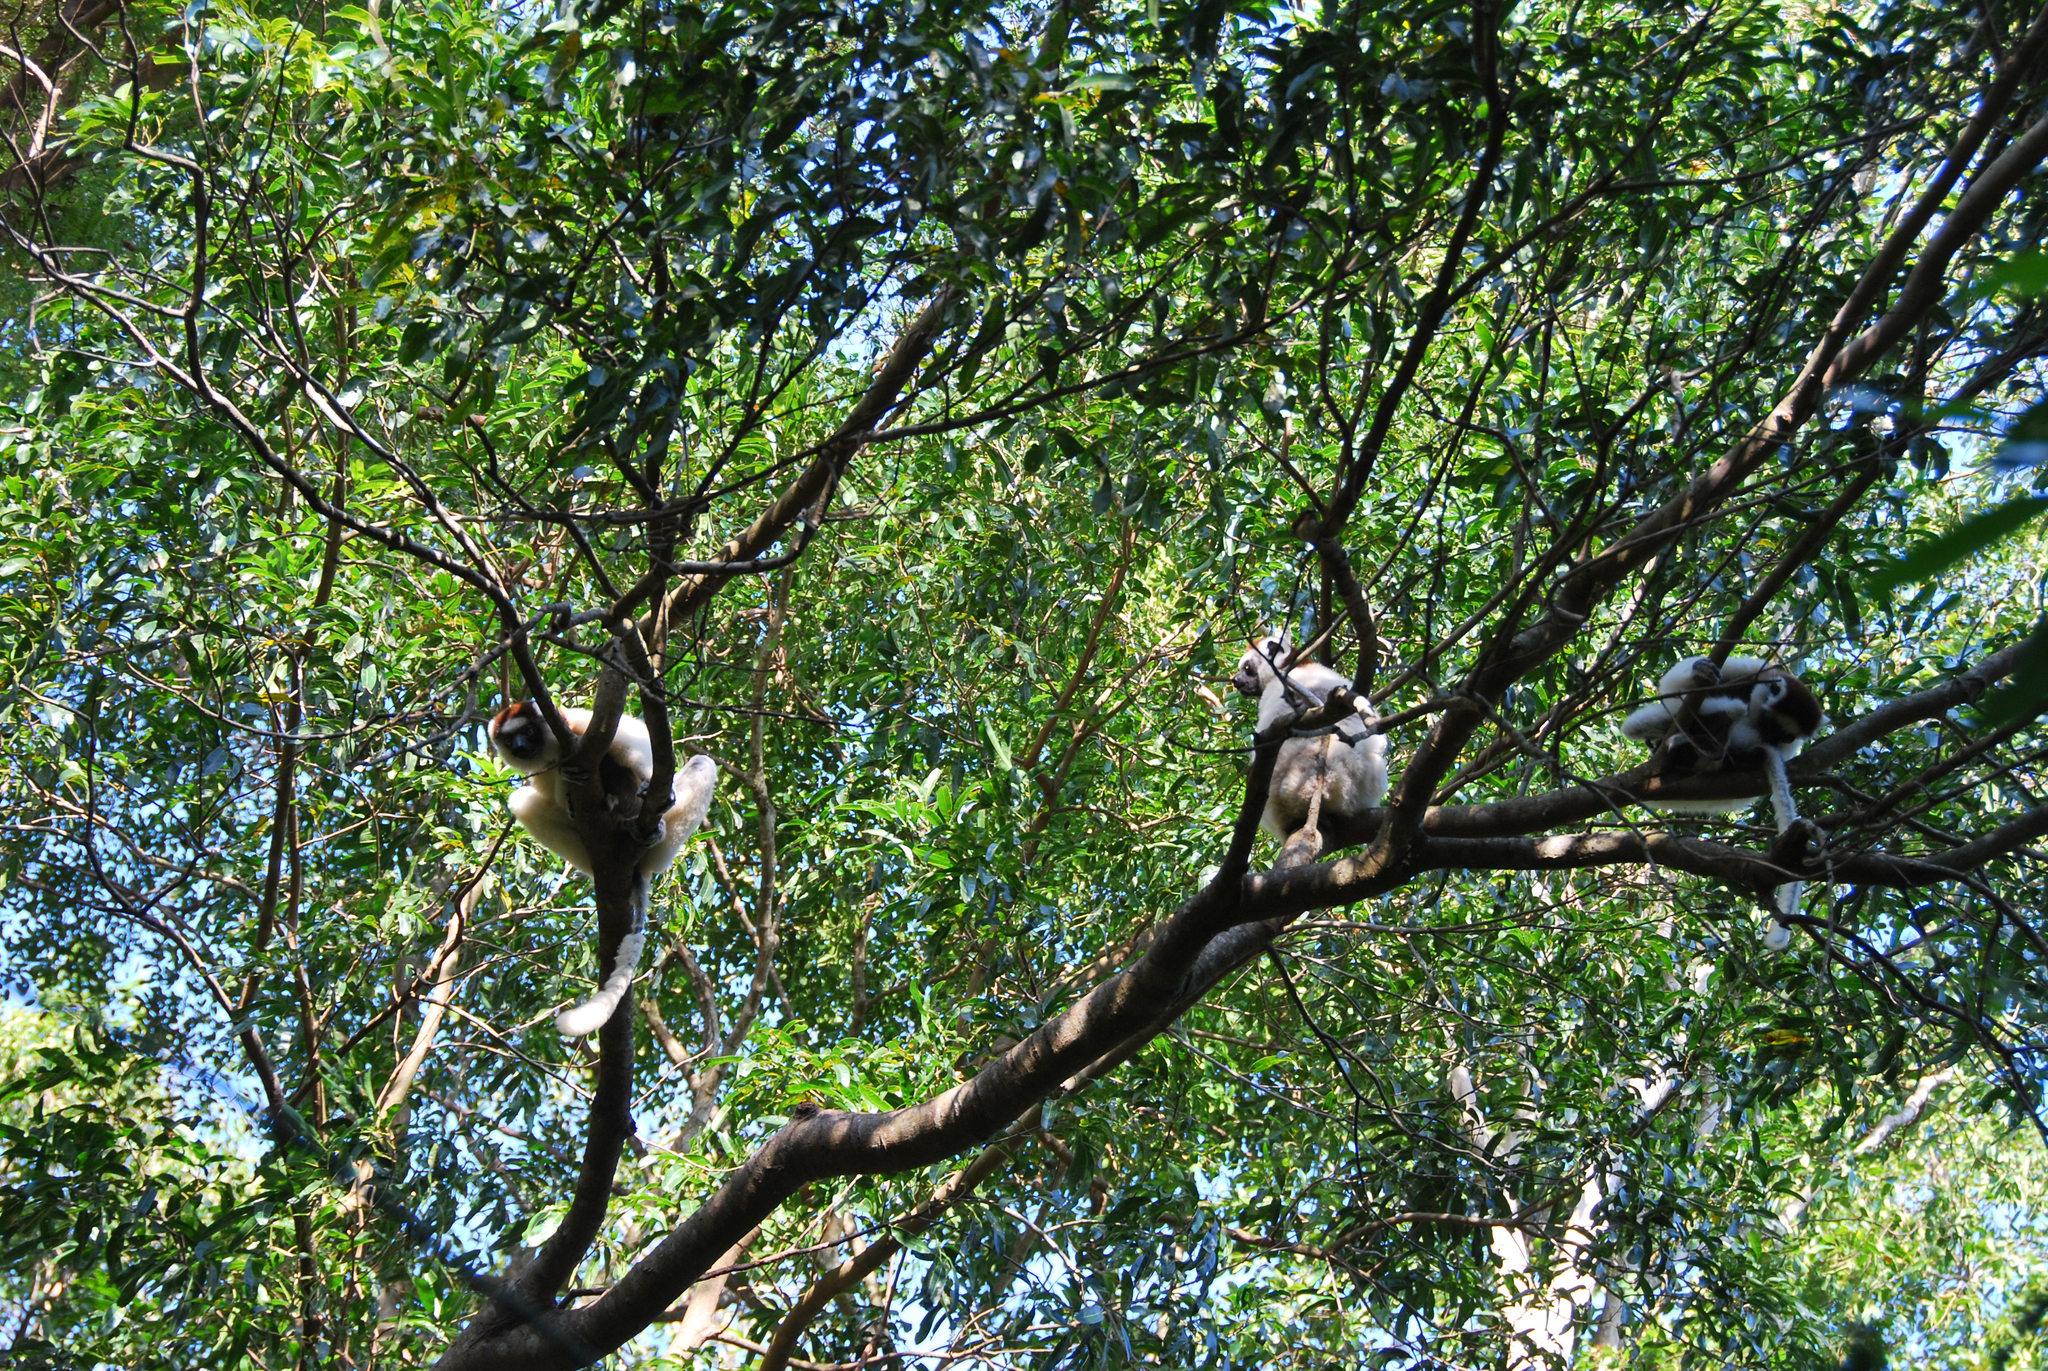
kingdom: Animalia
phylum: Chordata
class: Mammalia
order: Primates
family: Indriidae
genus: Propithecus
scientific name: Propithecus verreauxi
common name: Verreaux's sifaka
